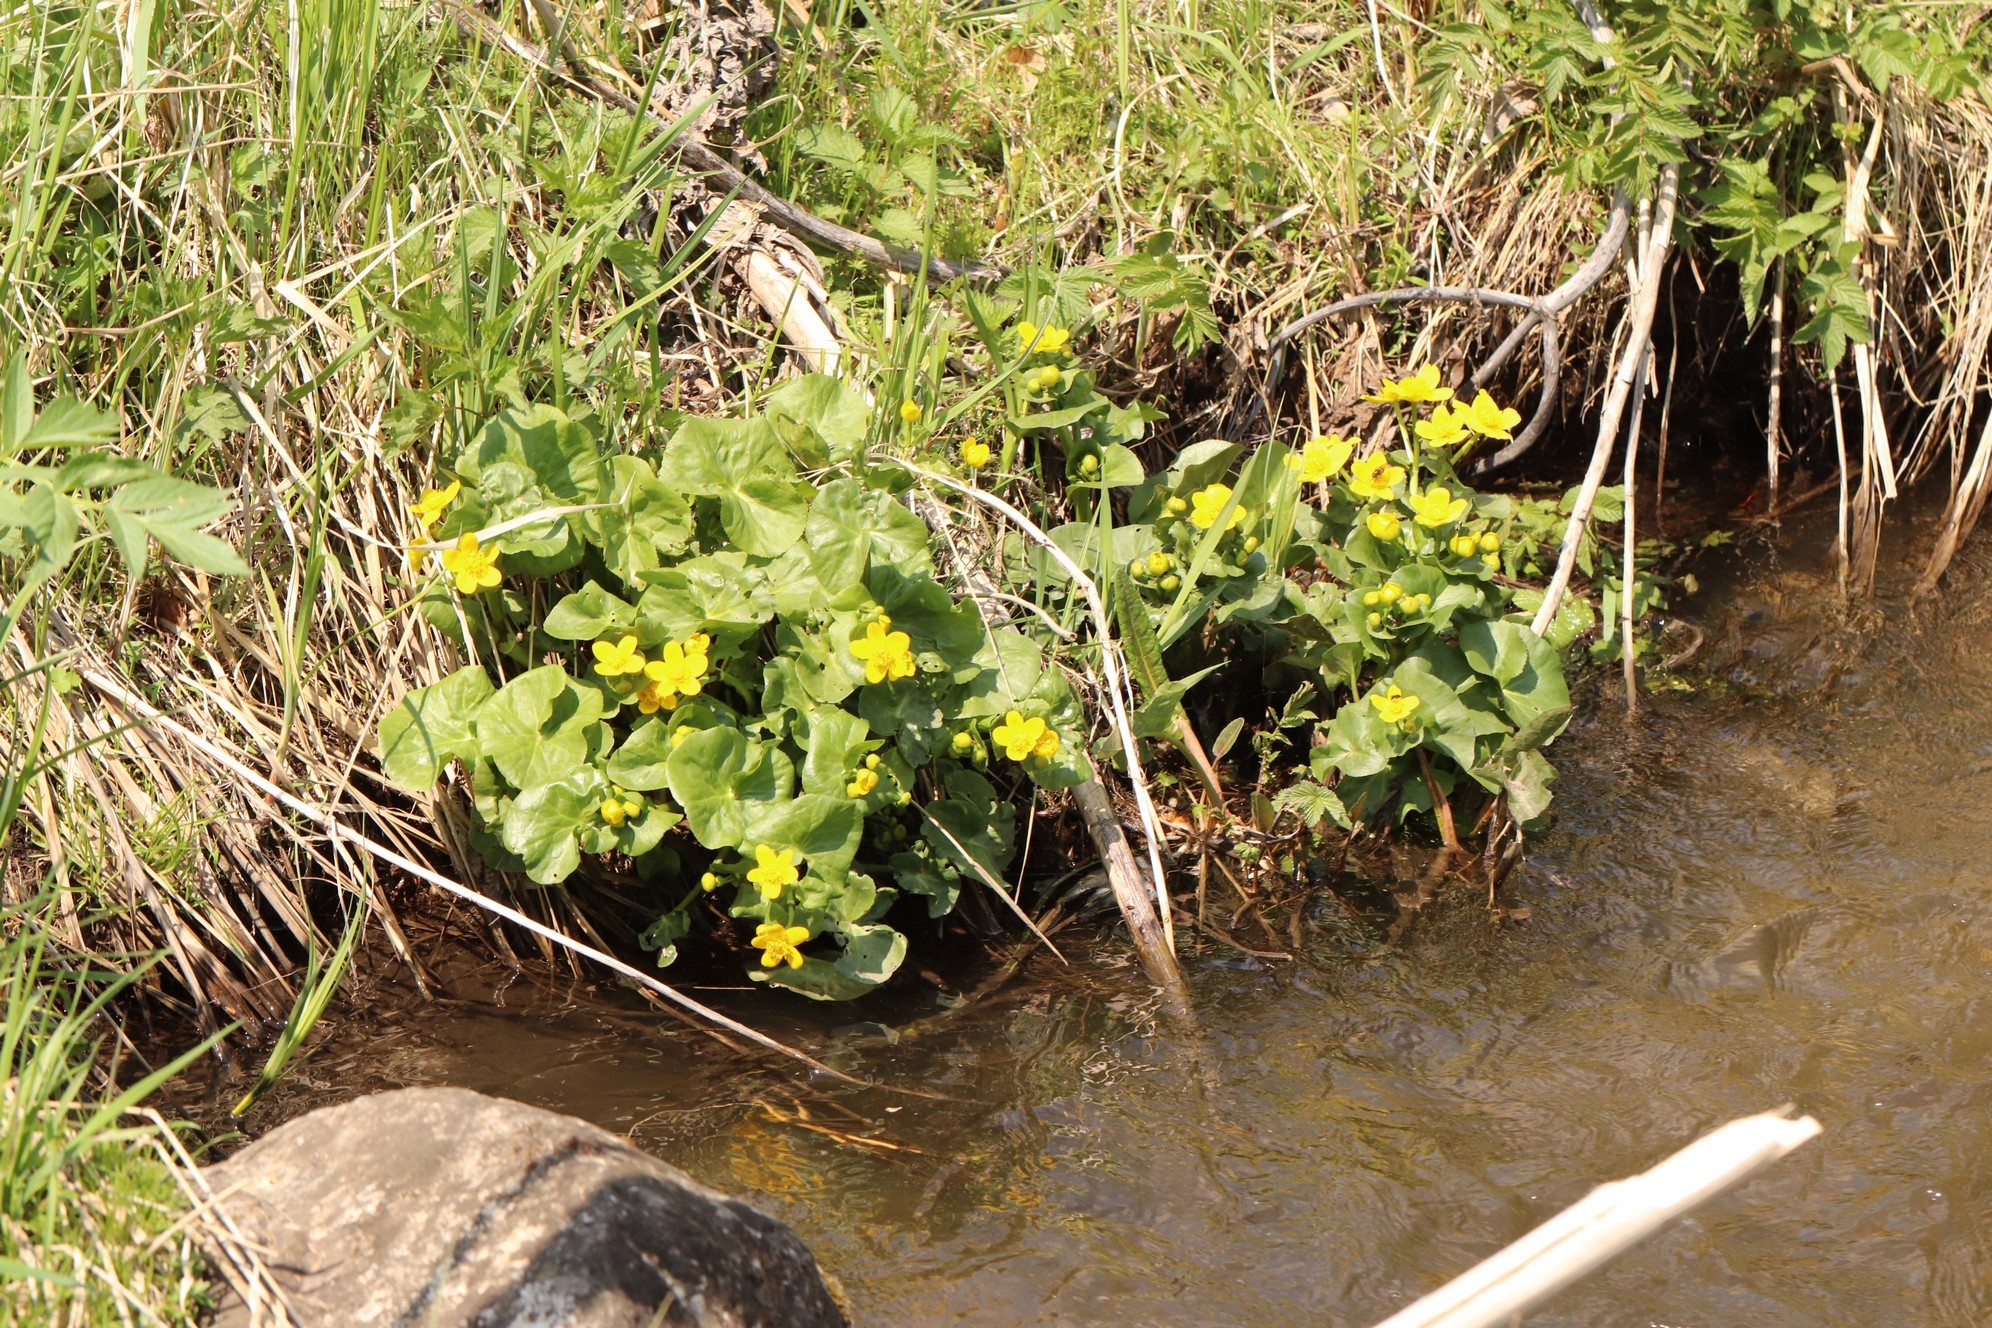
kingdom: Plantae
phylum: Tracheophyta
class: Magnoliopsida
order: Ranunculales
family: Ranunculaceae
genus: Caltha
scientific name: Caltha palustris
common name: Marsh marigold
